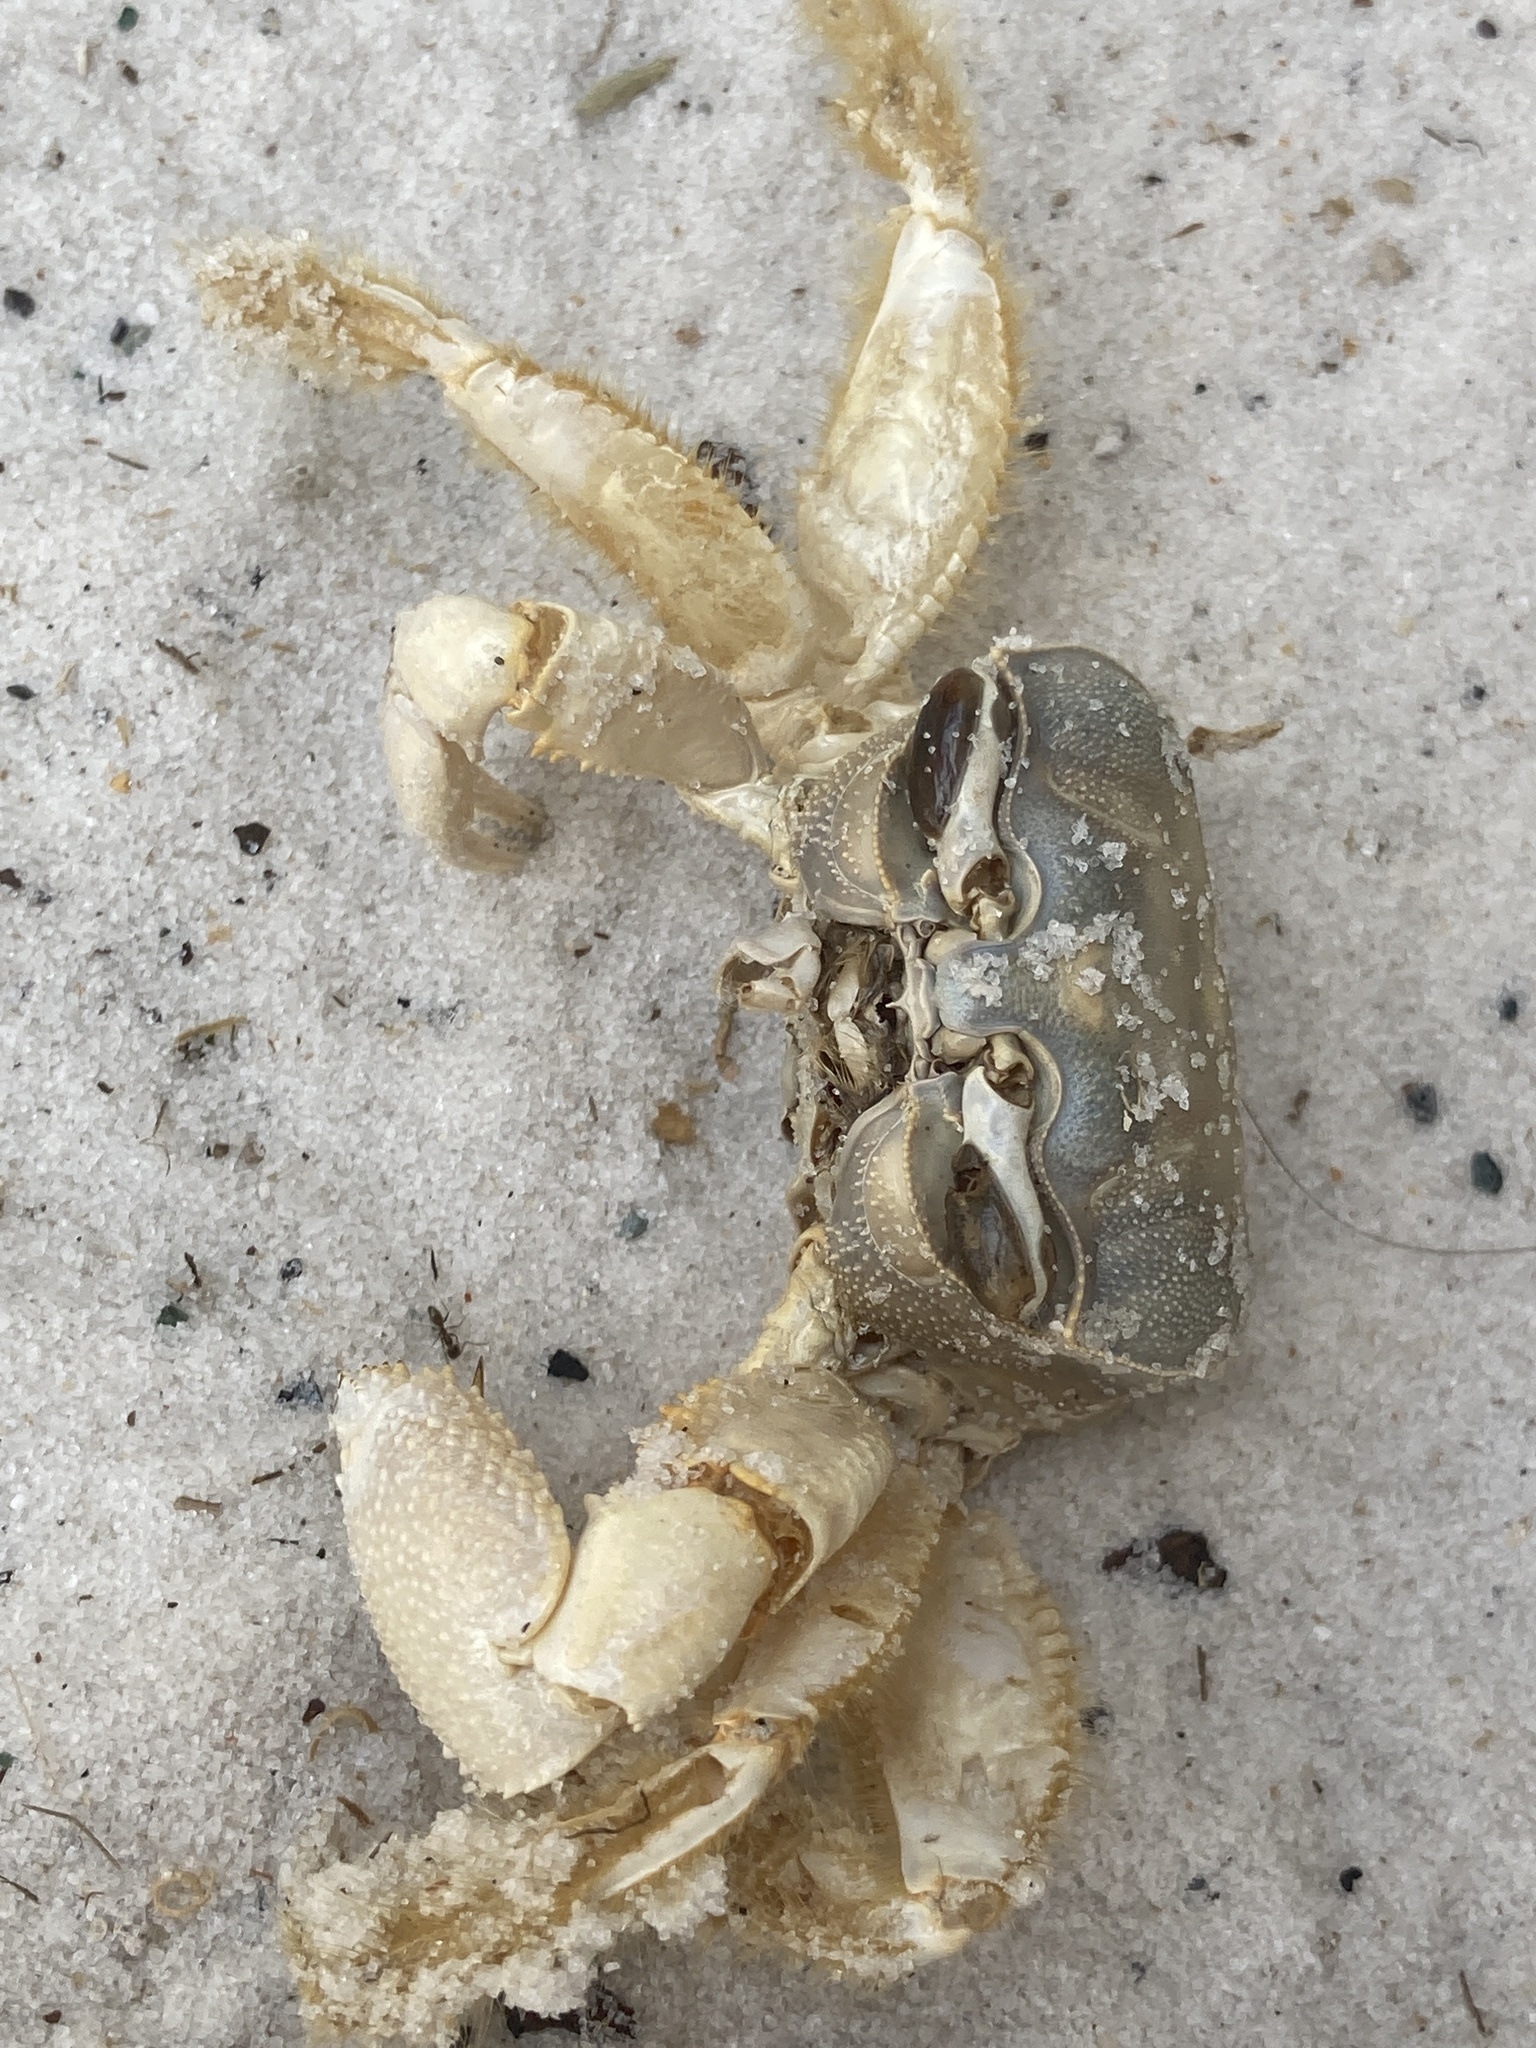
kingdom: Animalia
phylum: Arthropoda
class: Malacostraca
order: Decapoda
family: Ocypodidae
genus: Ocypode
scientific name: Ocypode quadrata
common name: Ghost crab
